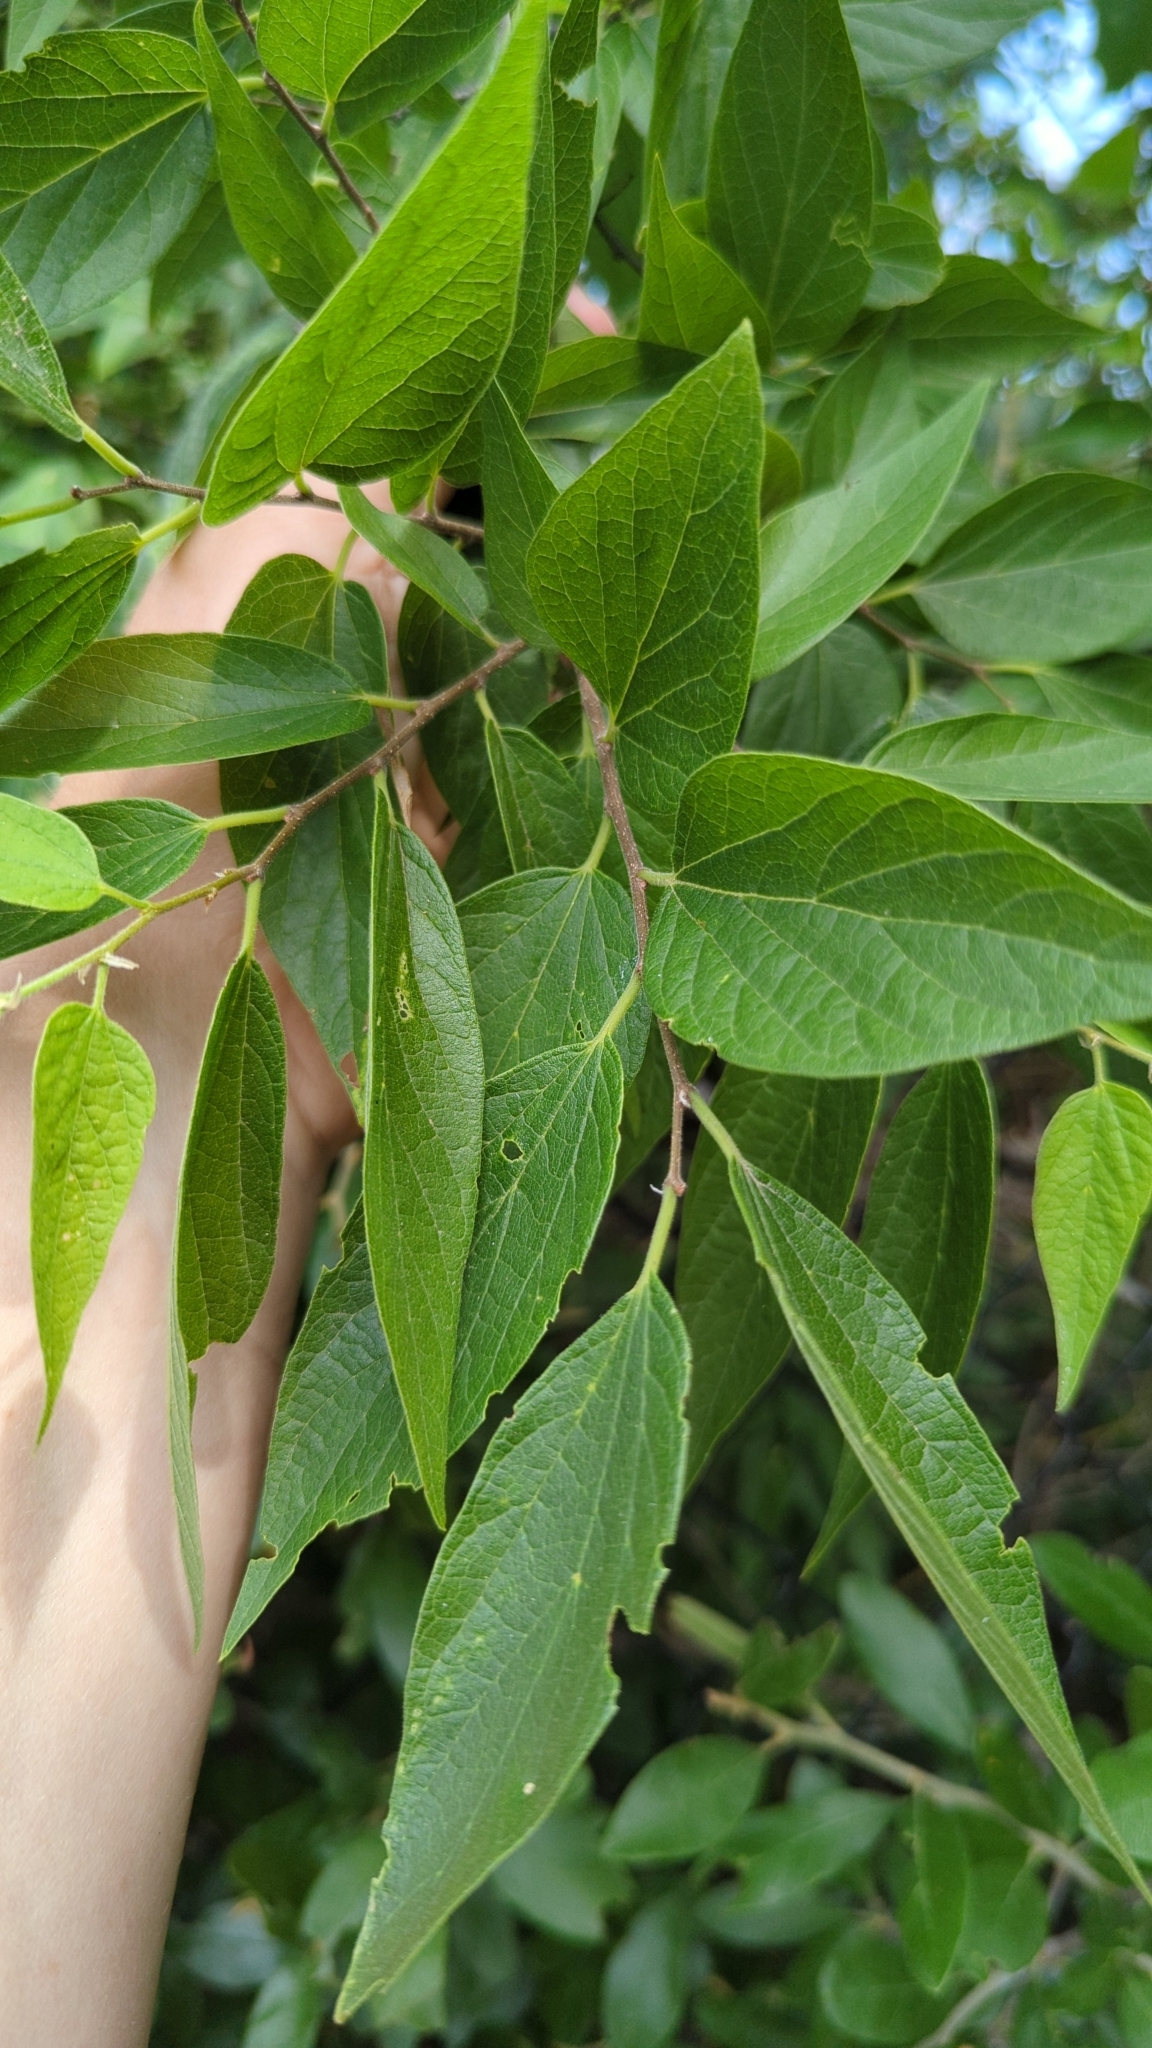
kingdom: Plantae
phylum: Tracheophyta
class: Magnoliopsida
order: Rosales
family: Cannabaceae
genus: Celtis
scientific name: Celtis laevigata
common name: Sugarberry
